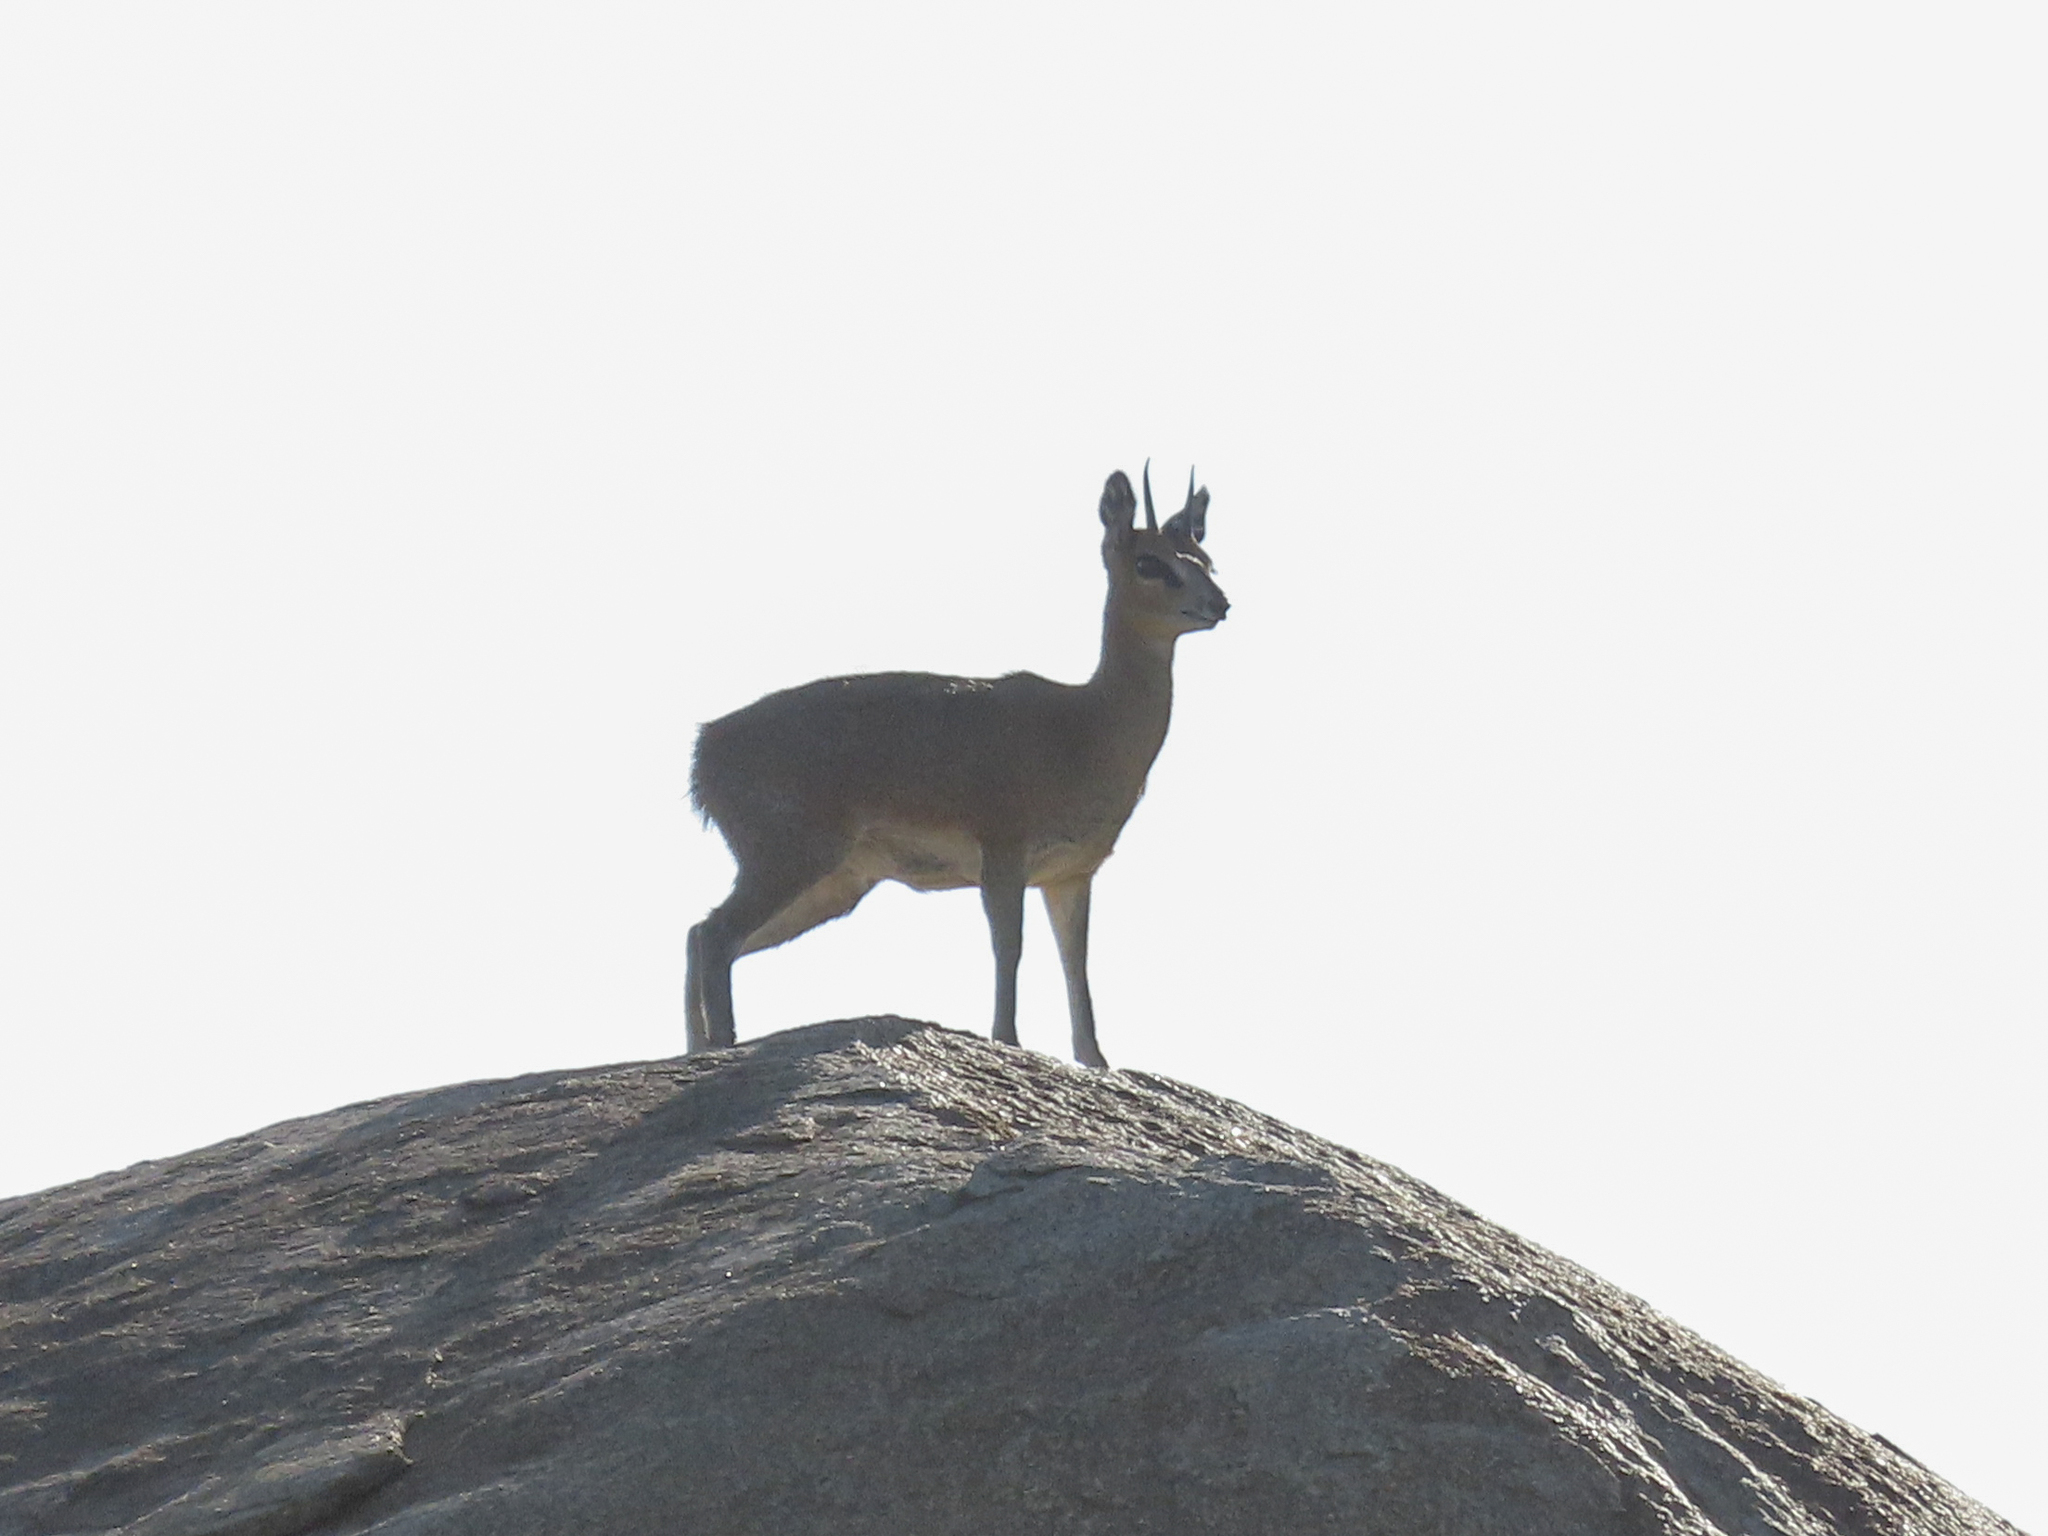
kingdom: Animalia
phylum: Chordata
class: Mammalia
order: Artiodactyla
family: Bovidae
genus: Oreotragus
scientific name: Oreotragus oreotragus
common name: Klipspringer
